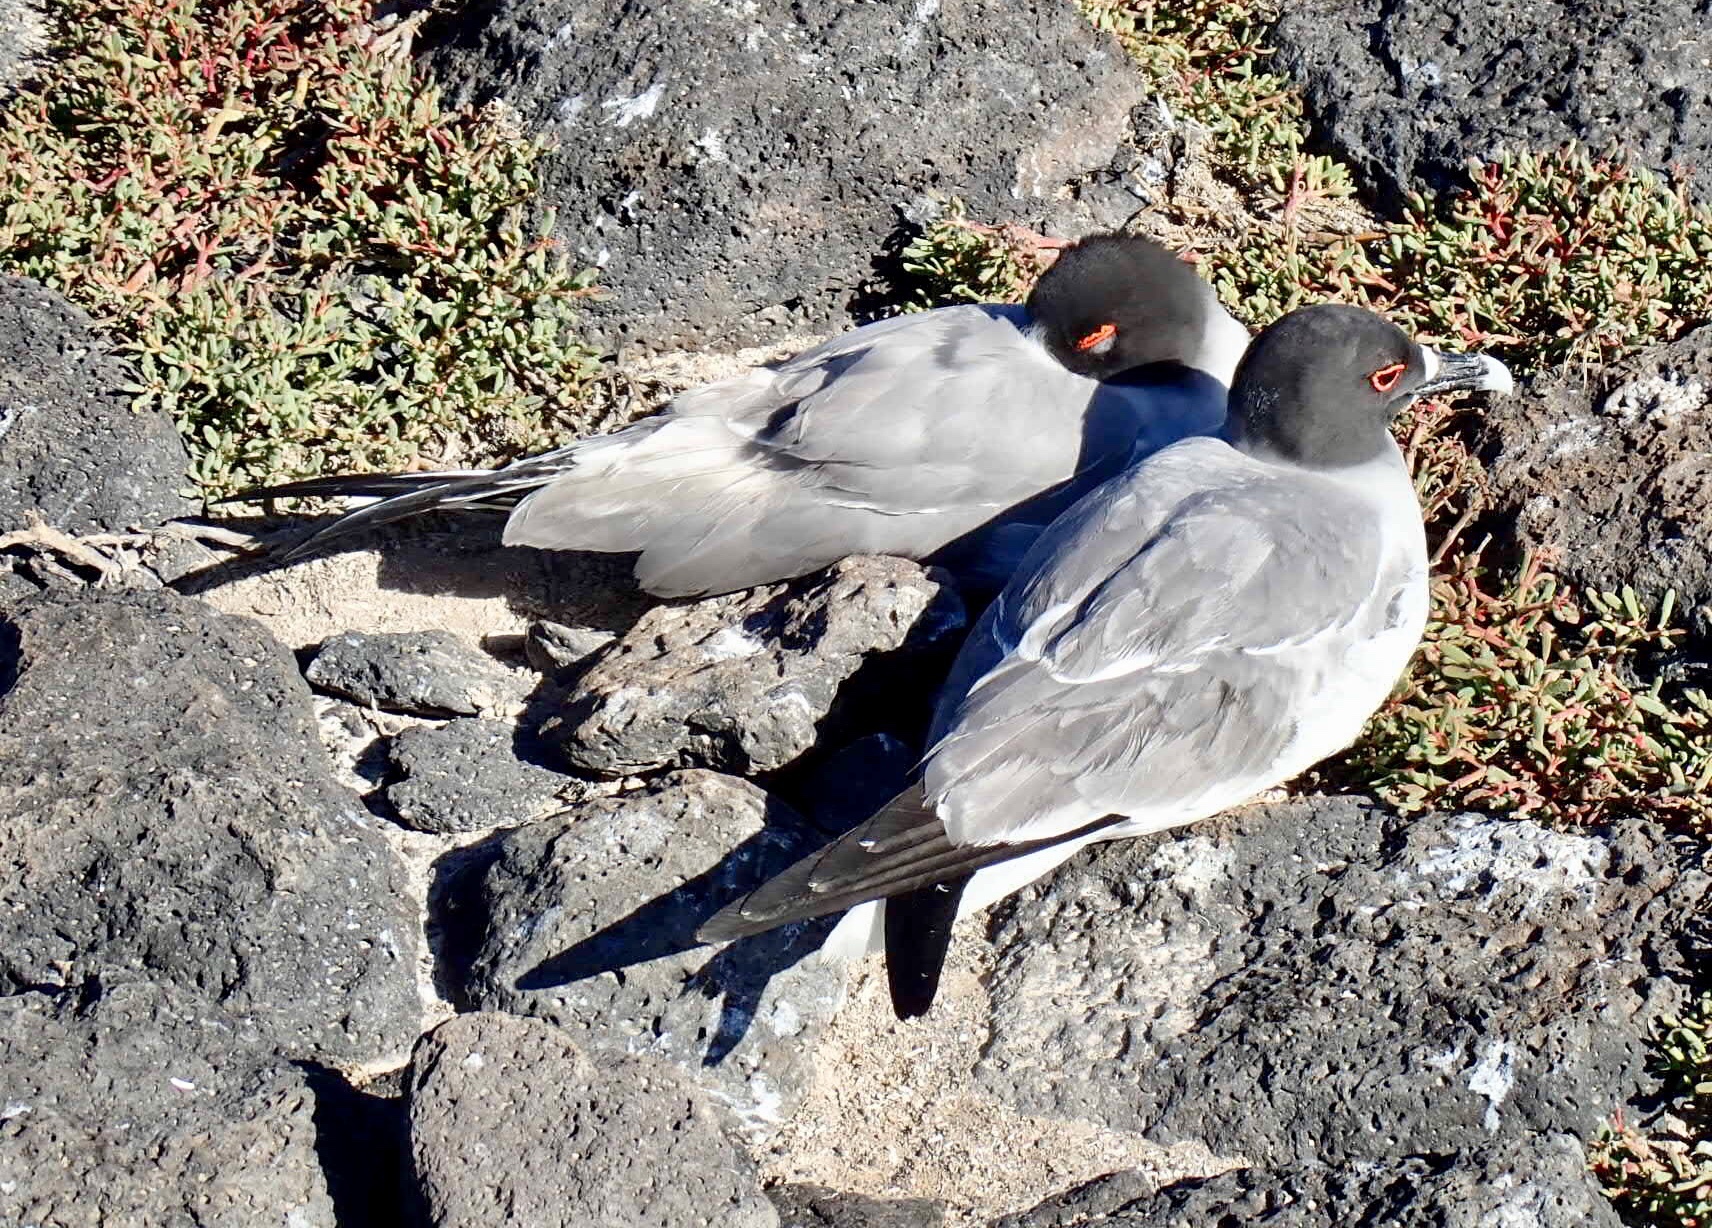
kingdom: Animalia
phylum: Chordata
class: Aves
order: Charadriiformes
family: Laridae
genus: Creagrus
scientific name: Creagrus furcatus
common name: Swallow-tailed gull
